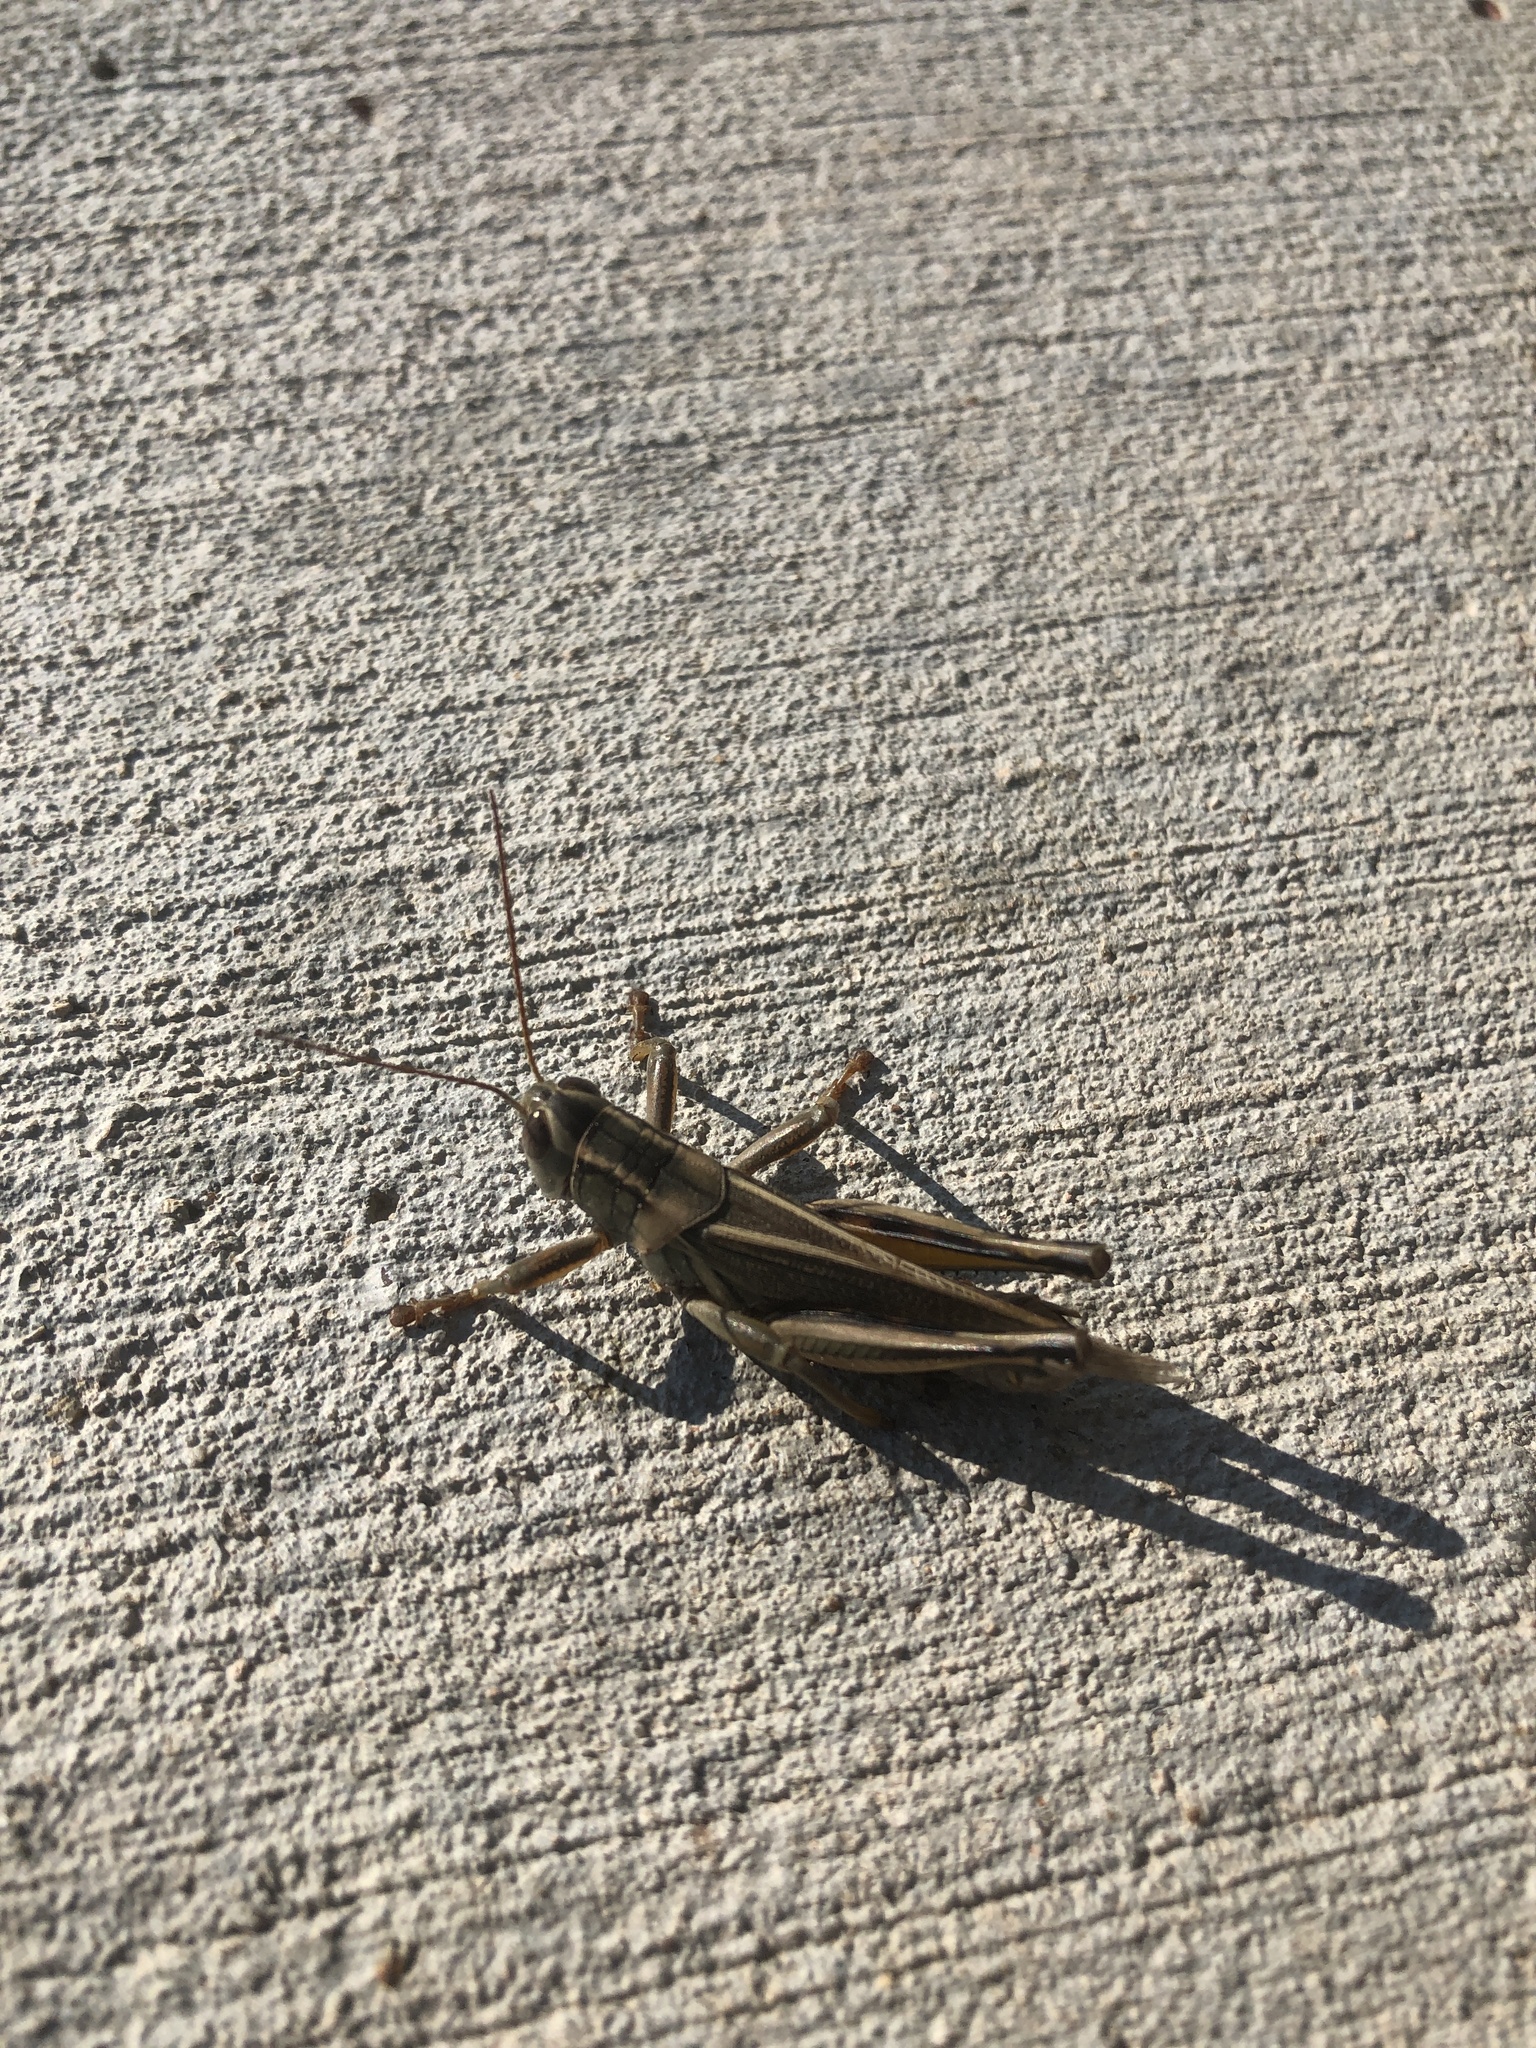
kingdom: Animalia
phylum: Arthropoda
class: Insecta
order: Orthoptera
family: Acrididae
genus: Melanoplus
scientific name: Melanoplus bivittatus
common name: Two-striped grasshopper
